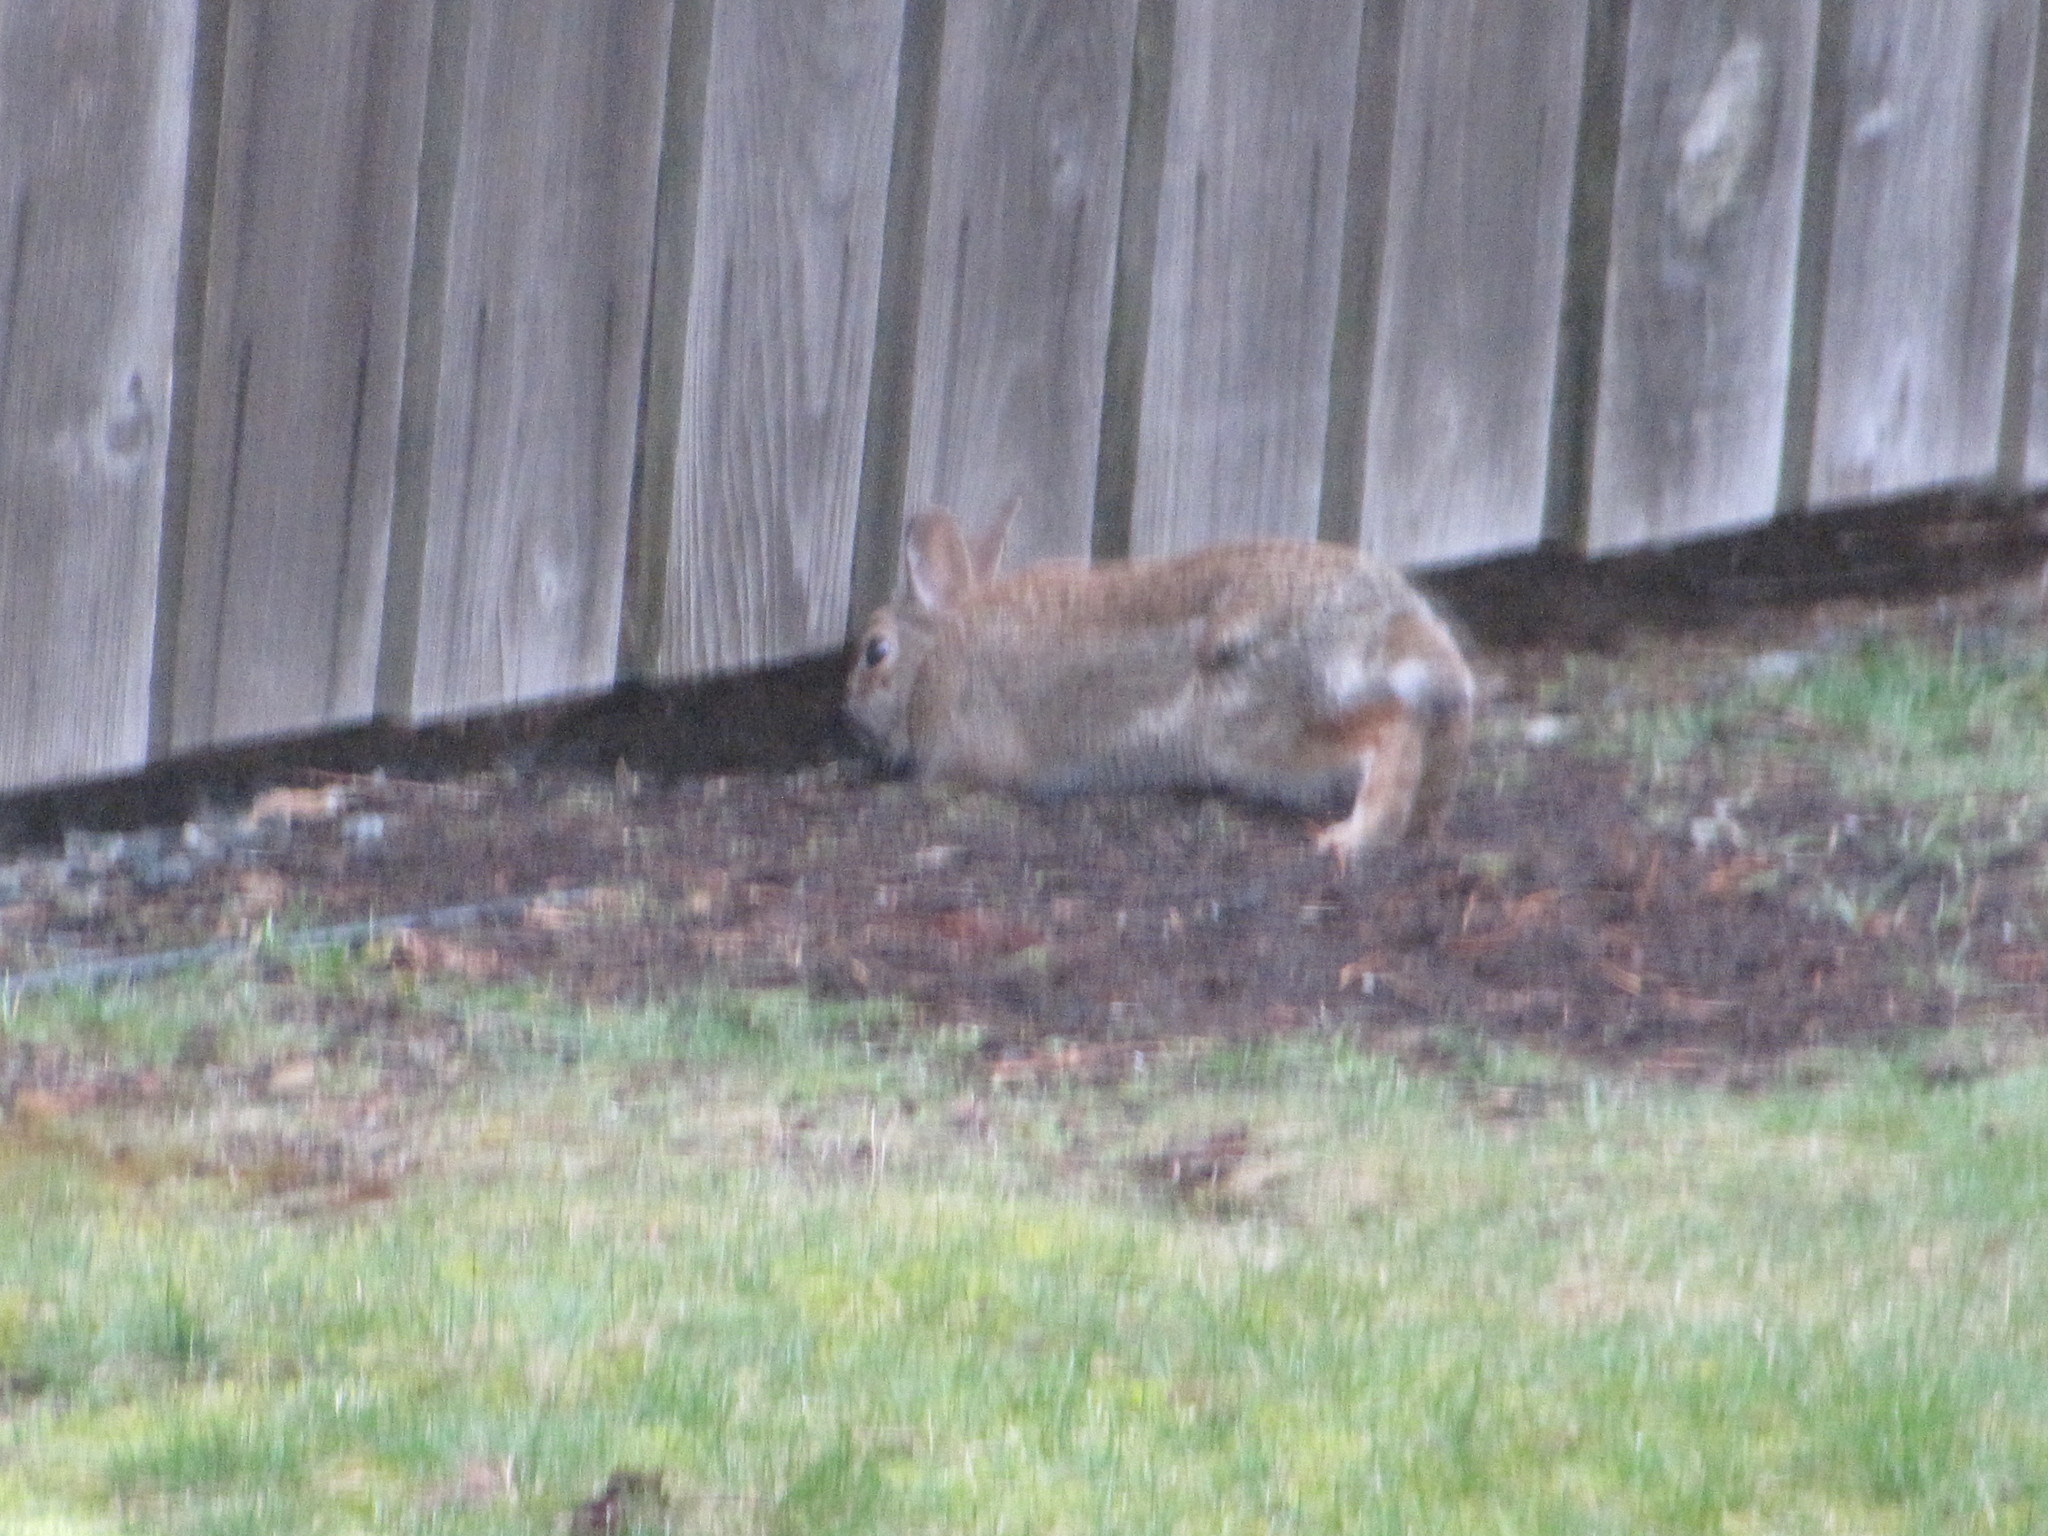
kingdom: Animalia
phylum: Chordata
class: Mammalia
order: Lagomorpha
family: Leporidae
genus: Sylvilagus
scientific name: Sylvilagus floridanus
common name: Eastern cottontail
